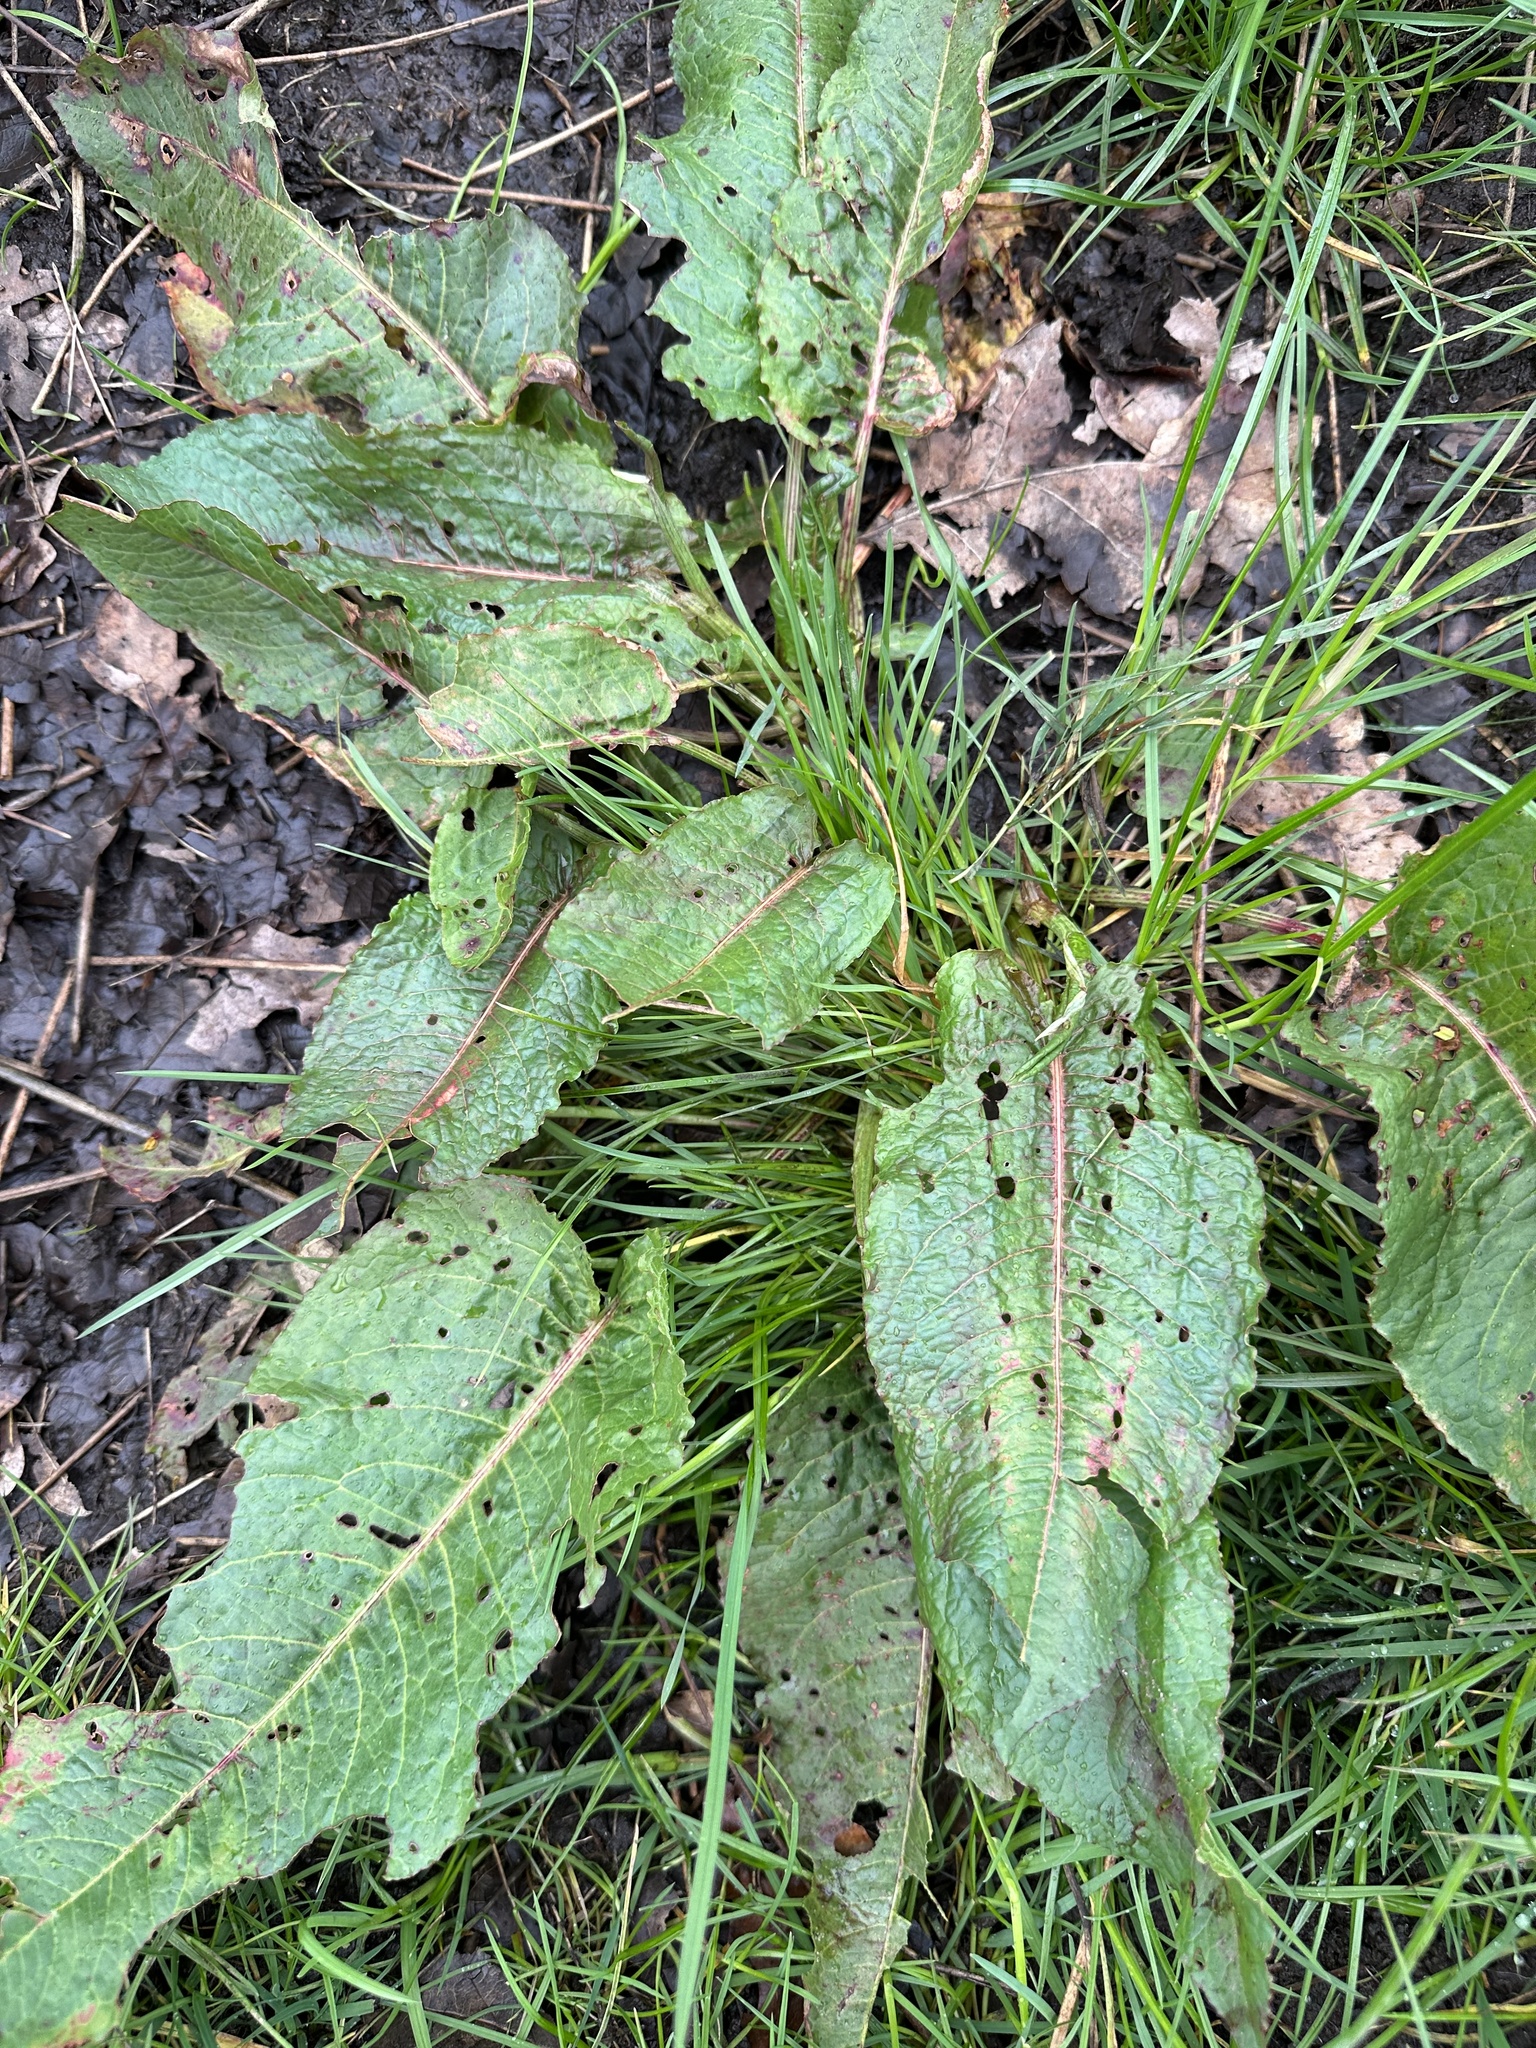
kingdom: Plantae
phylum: Tracheophyta
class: Magnoliopsida
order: Caryophyllales
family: Polygonaceae
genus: Rumex
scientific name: Rumex obtusifolius
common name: Bitter dock
